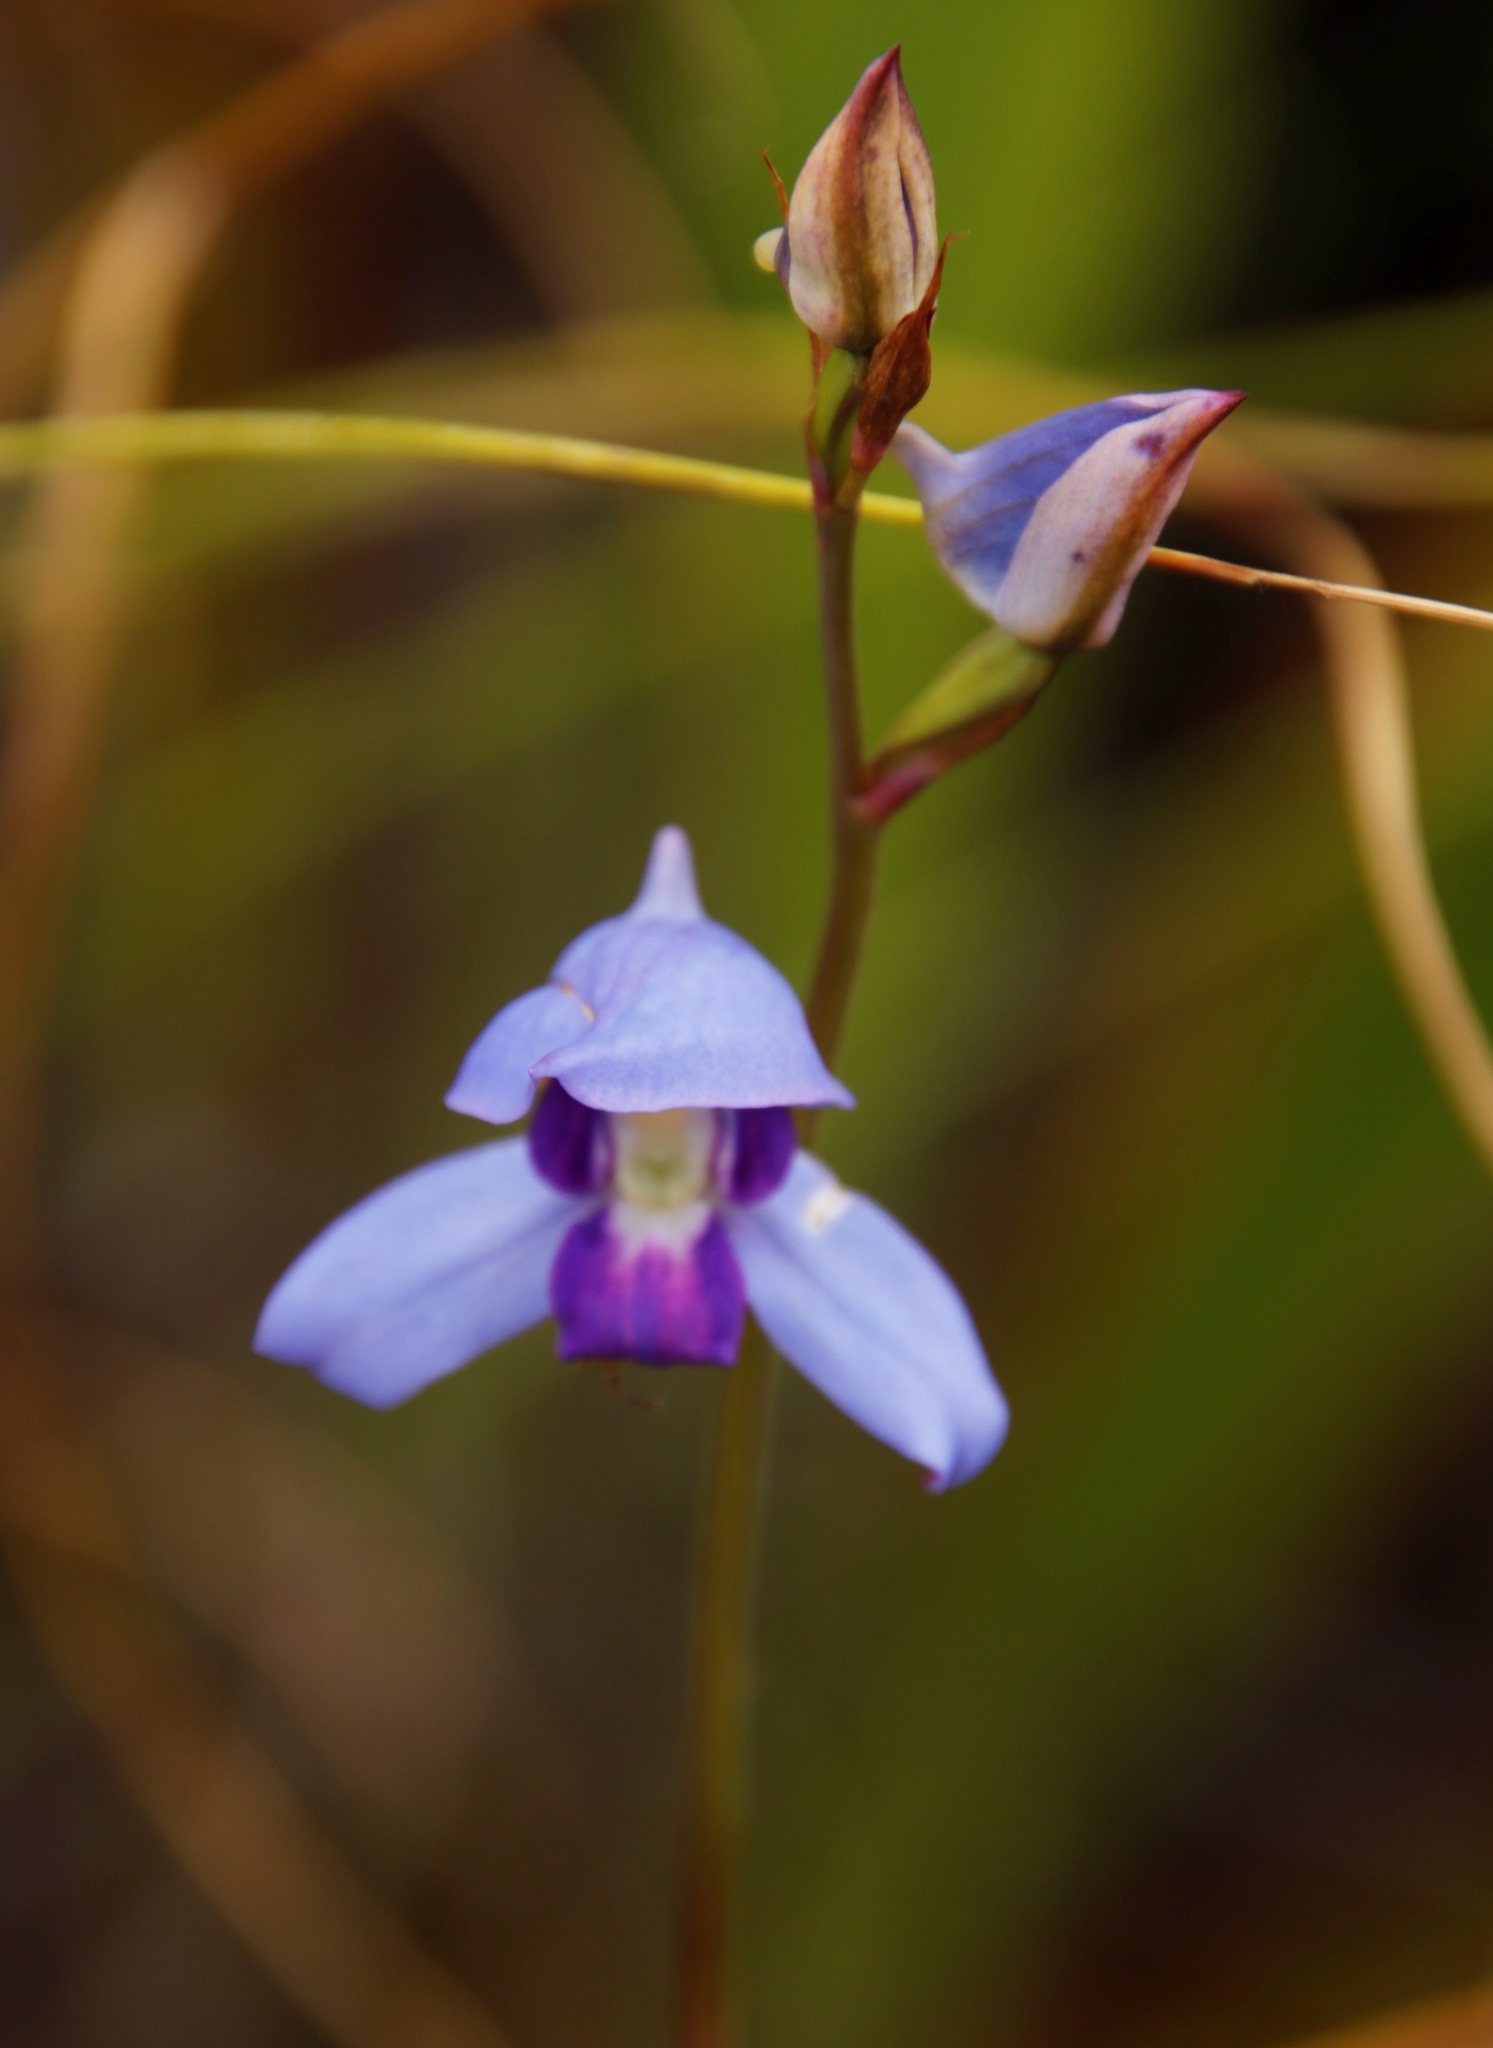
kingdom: Plantae
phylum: Tracheophyta
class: Liliopsida
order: Asparagales
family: Orchidaceae
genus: Disa
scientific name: Disa graminifolia
